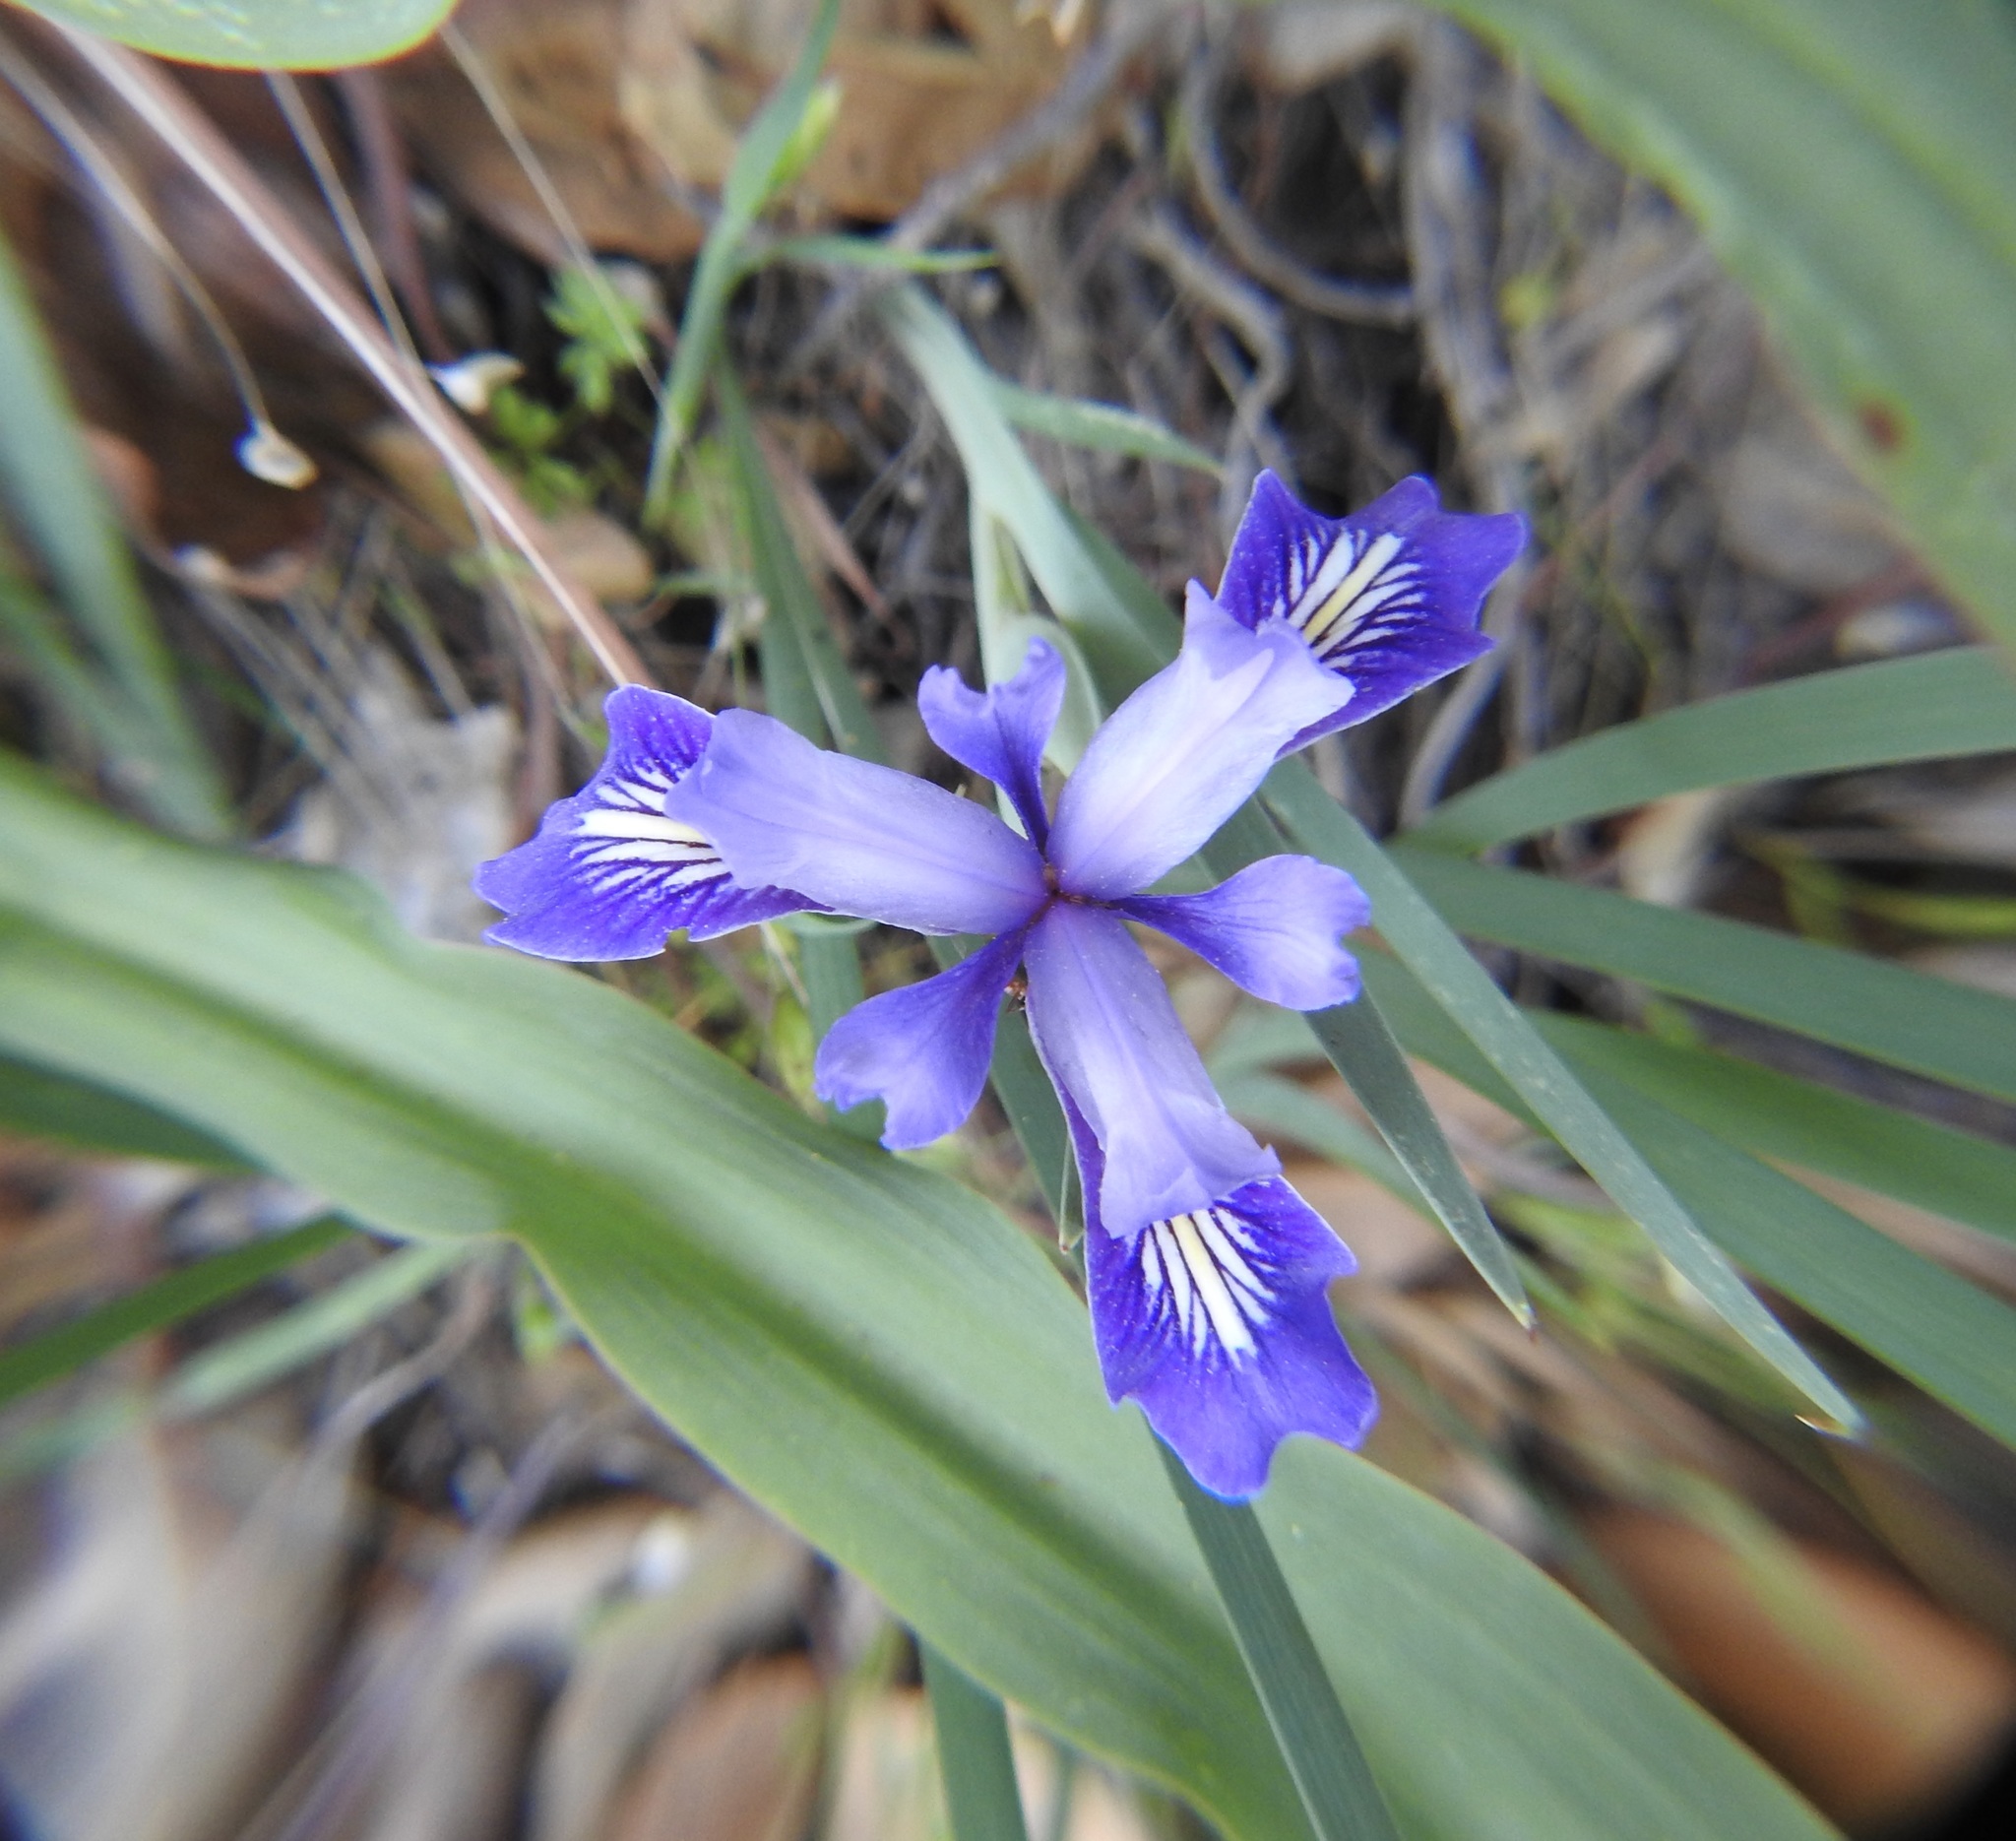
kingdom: Plantae
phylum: Tracheophyta
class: Liliopsida
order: Asparagales
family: Iridaceae
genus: Iris
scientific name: Iris macrosiphon
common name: Ground iris
